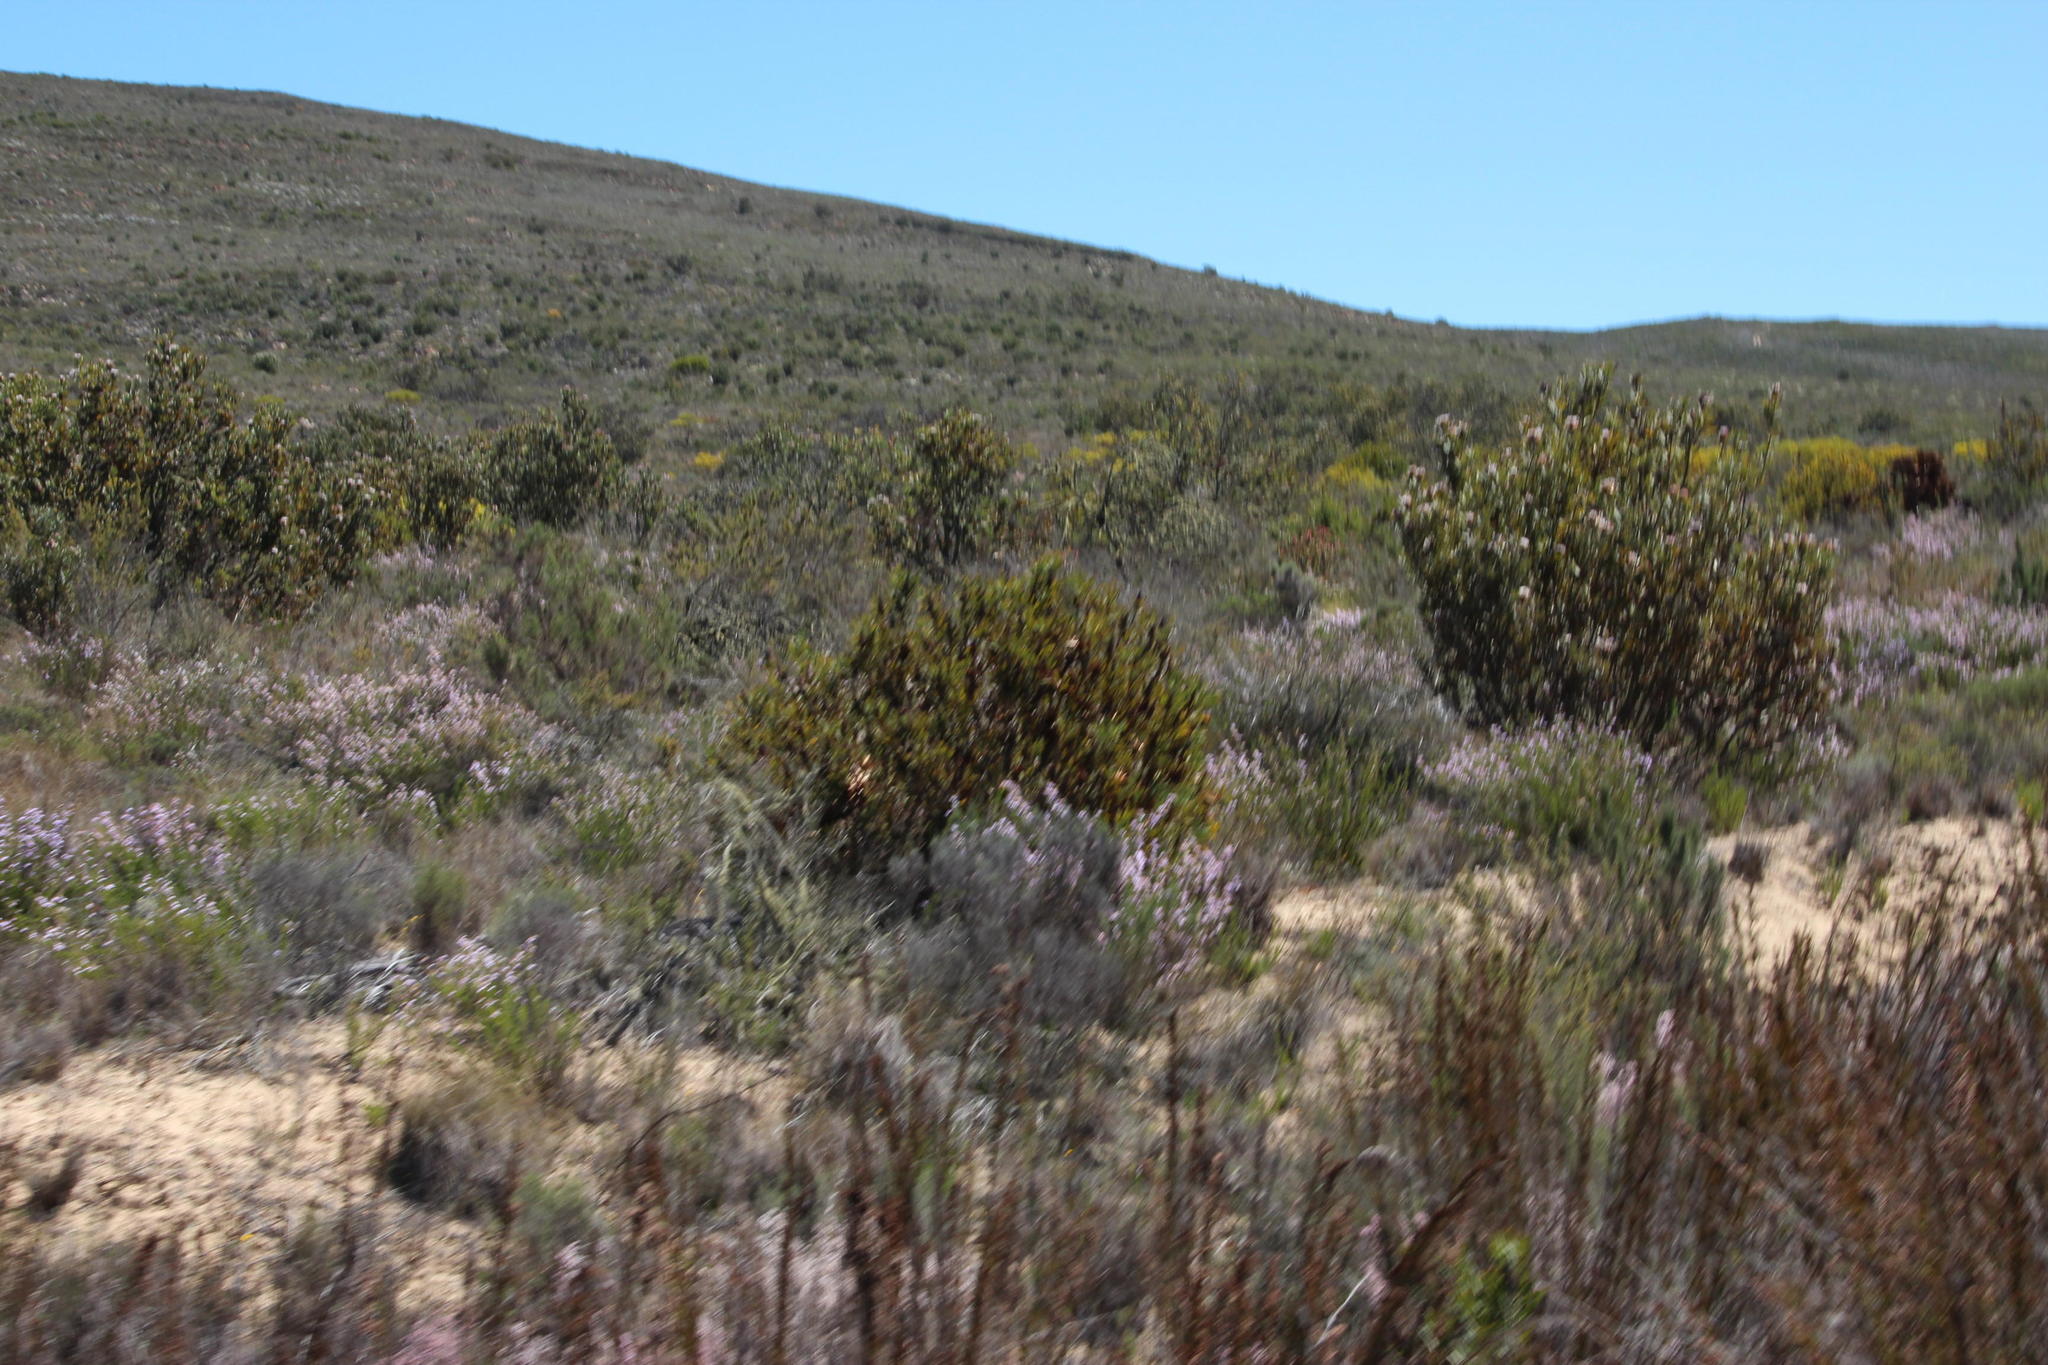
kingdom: Plantae
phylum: Tracheophyta
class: Magnoliopsida
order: Proteales
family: Proteaceae
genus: Protea
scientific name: Protea repens
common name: Sugarbush
